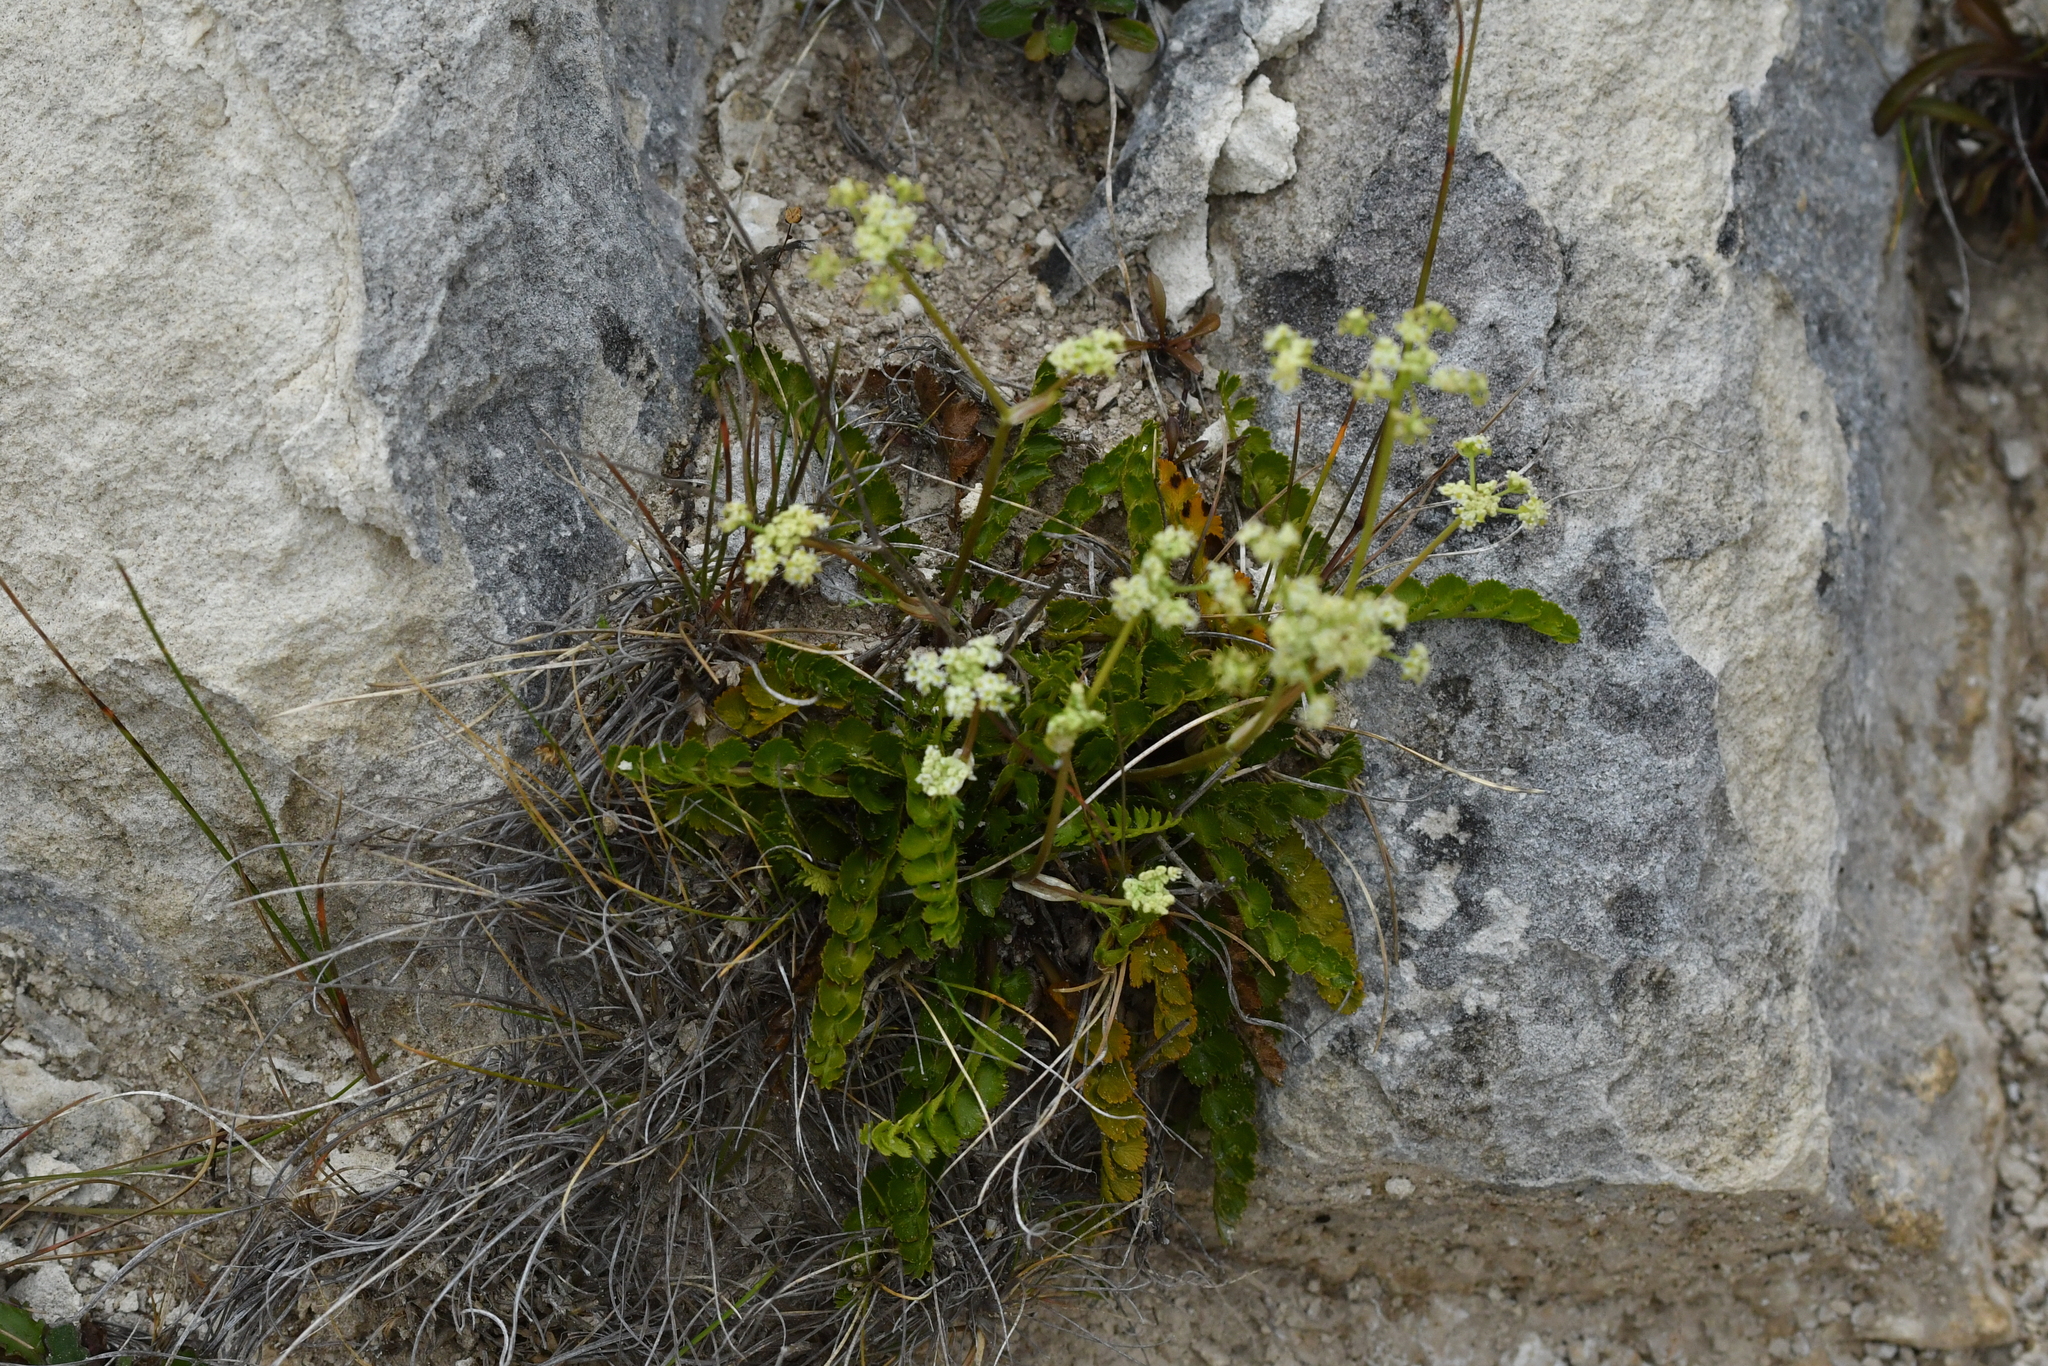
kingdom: Plantae
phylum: Tracheophyta
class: Magnoliopsida
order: Apiales
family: Apiaceae
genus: Anisotome
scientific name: Anisotome aromatica
